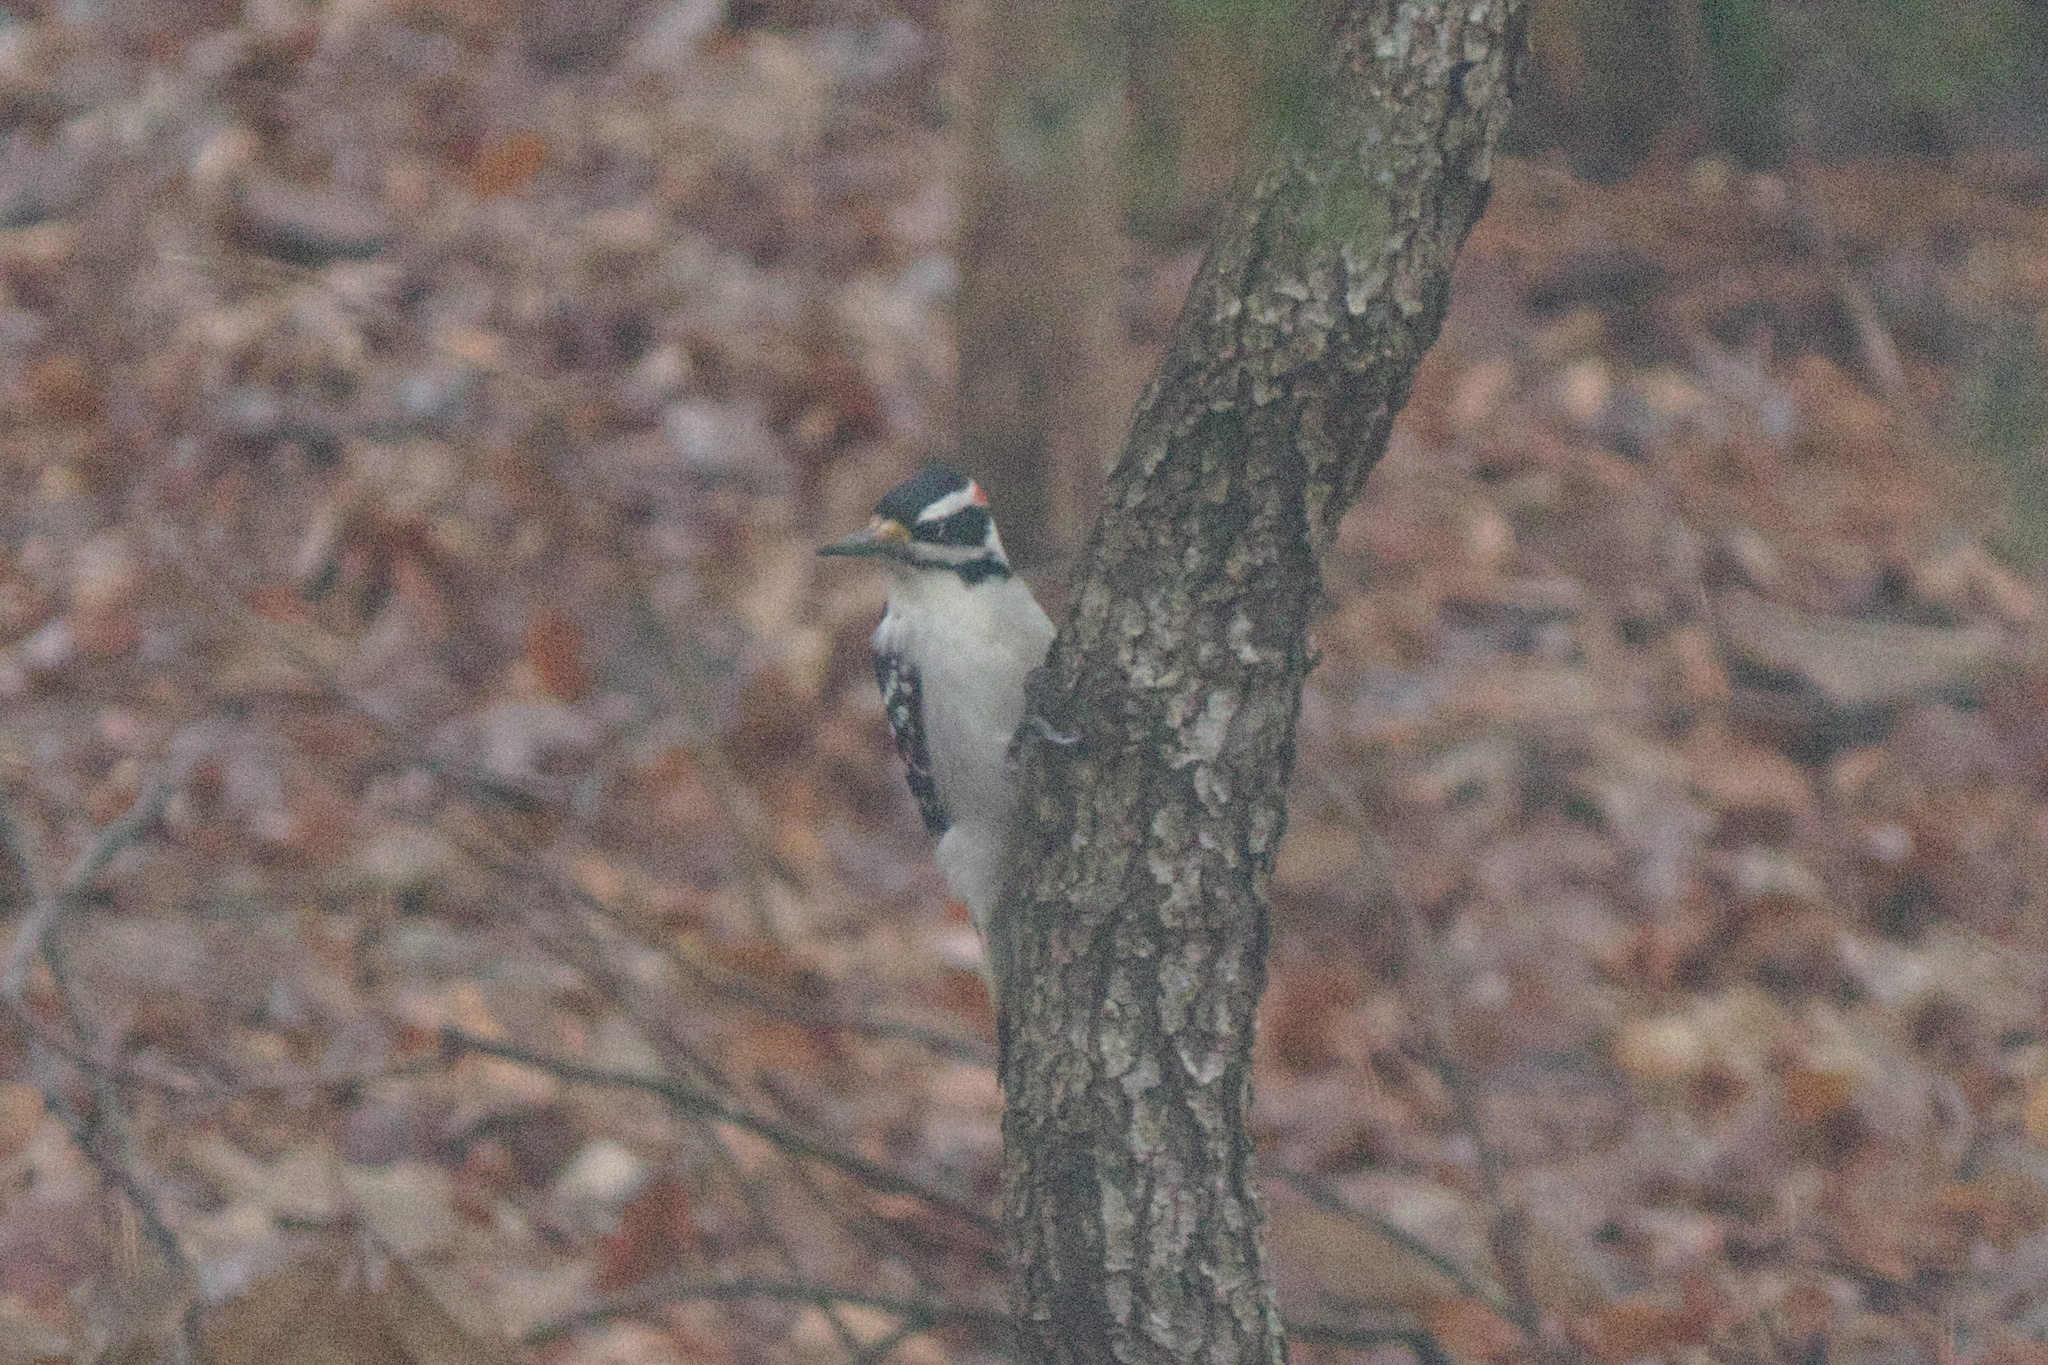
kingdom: Animalia
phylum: Chordata
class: Aves
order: Piciformes
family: Picidae
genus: Dryobates
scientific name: Dryobates pubescens
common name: Downy woodpecker
